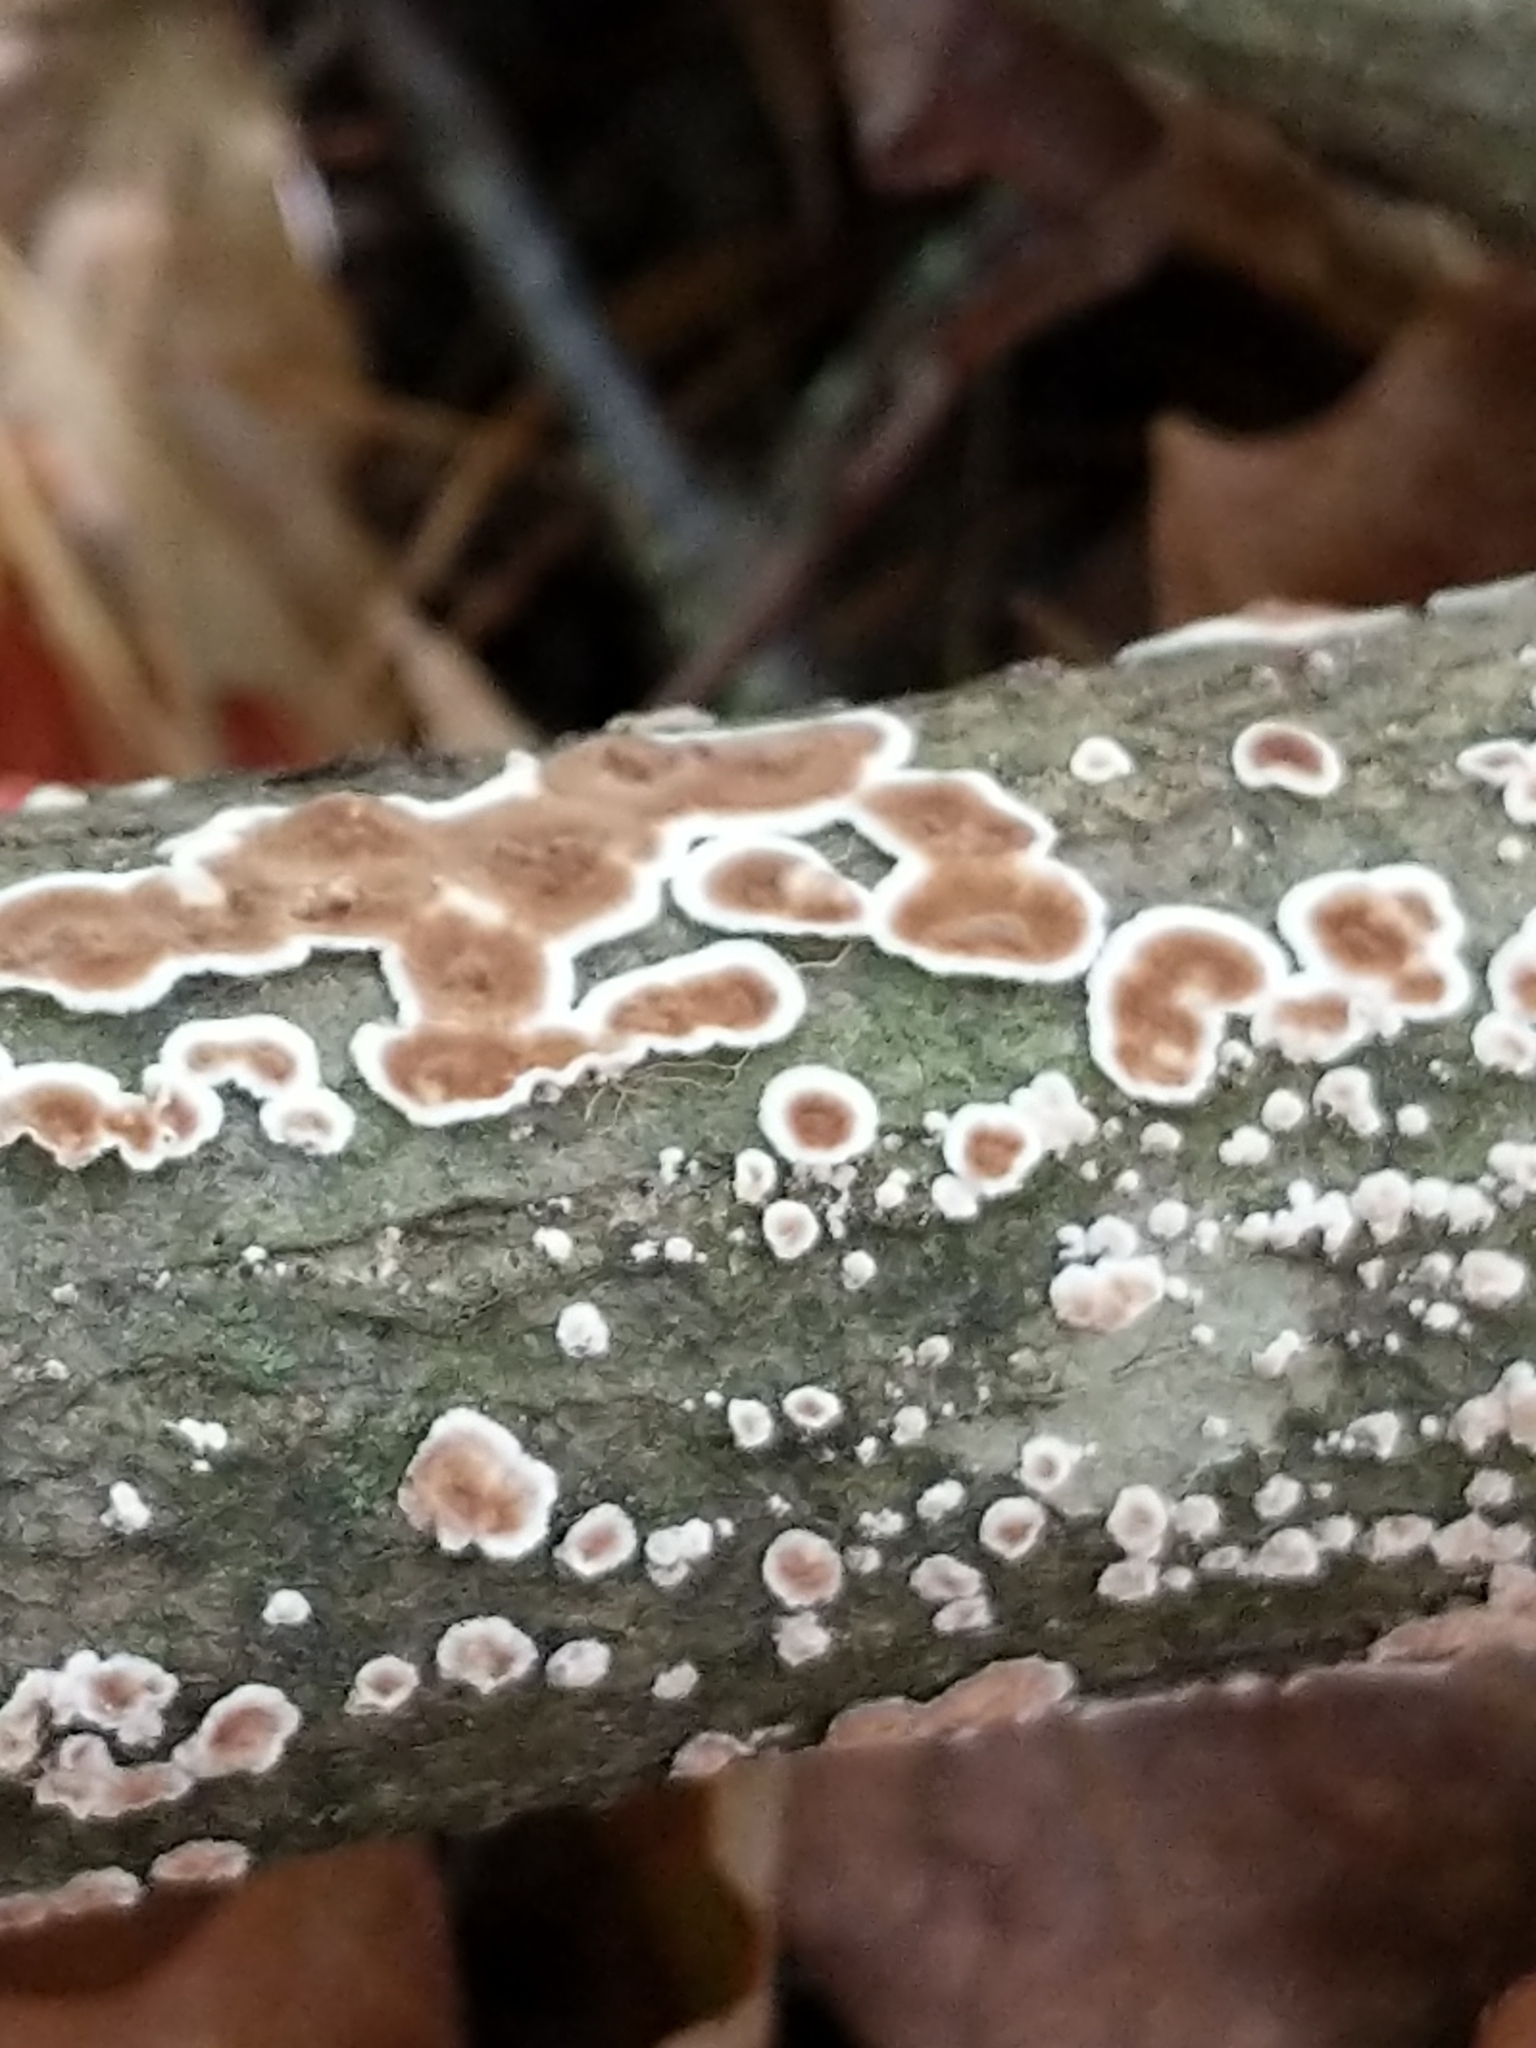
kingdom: Fungi
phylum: Basidiomycota
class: Agaricomycetes
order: Russulales
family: Peniophoraceae
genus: Peniophora
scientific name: Peniophora albobadia
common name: Giraffe spots
